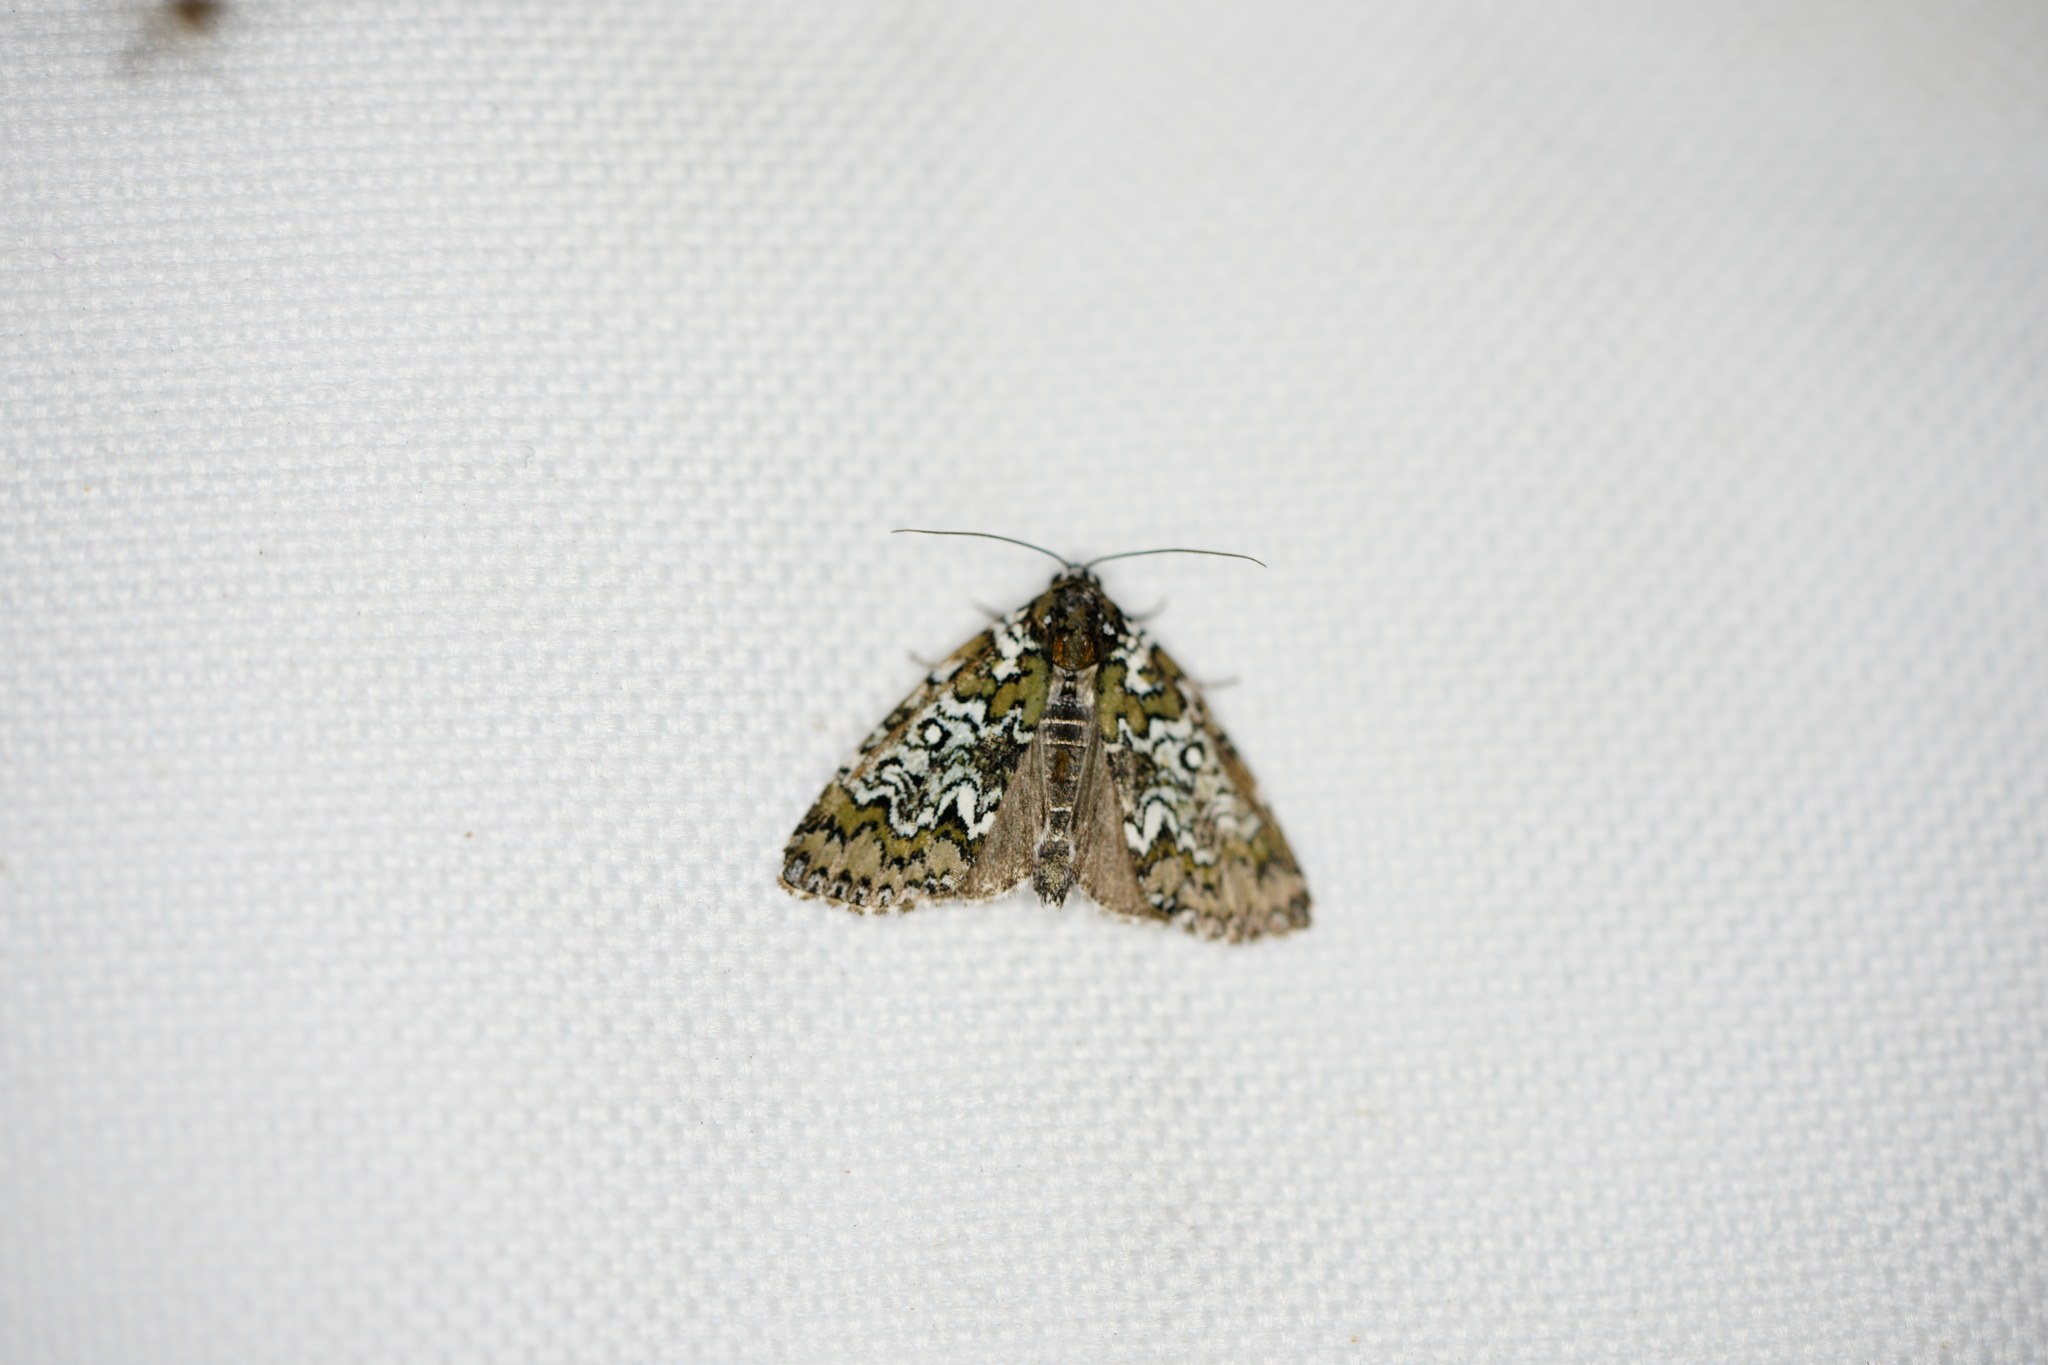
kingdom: Animalia
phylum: Arthropoda
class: Insecta
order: Lepidoptera
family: Noctuidae
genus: Cerma
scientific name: Cerma cora
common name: Bird dropping moth
